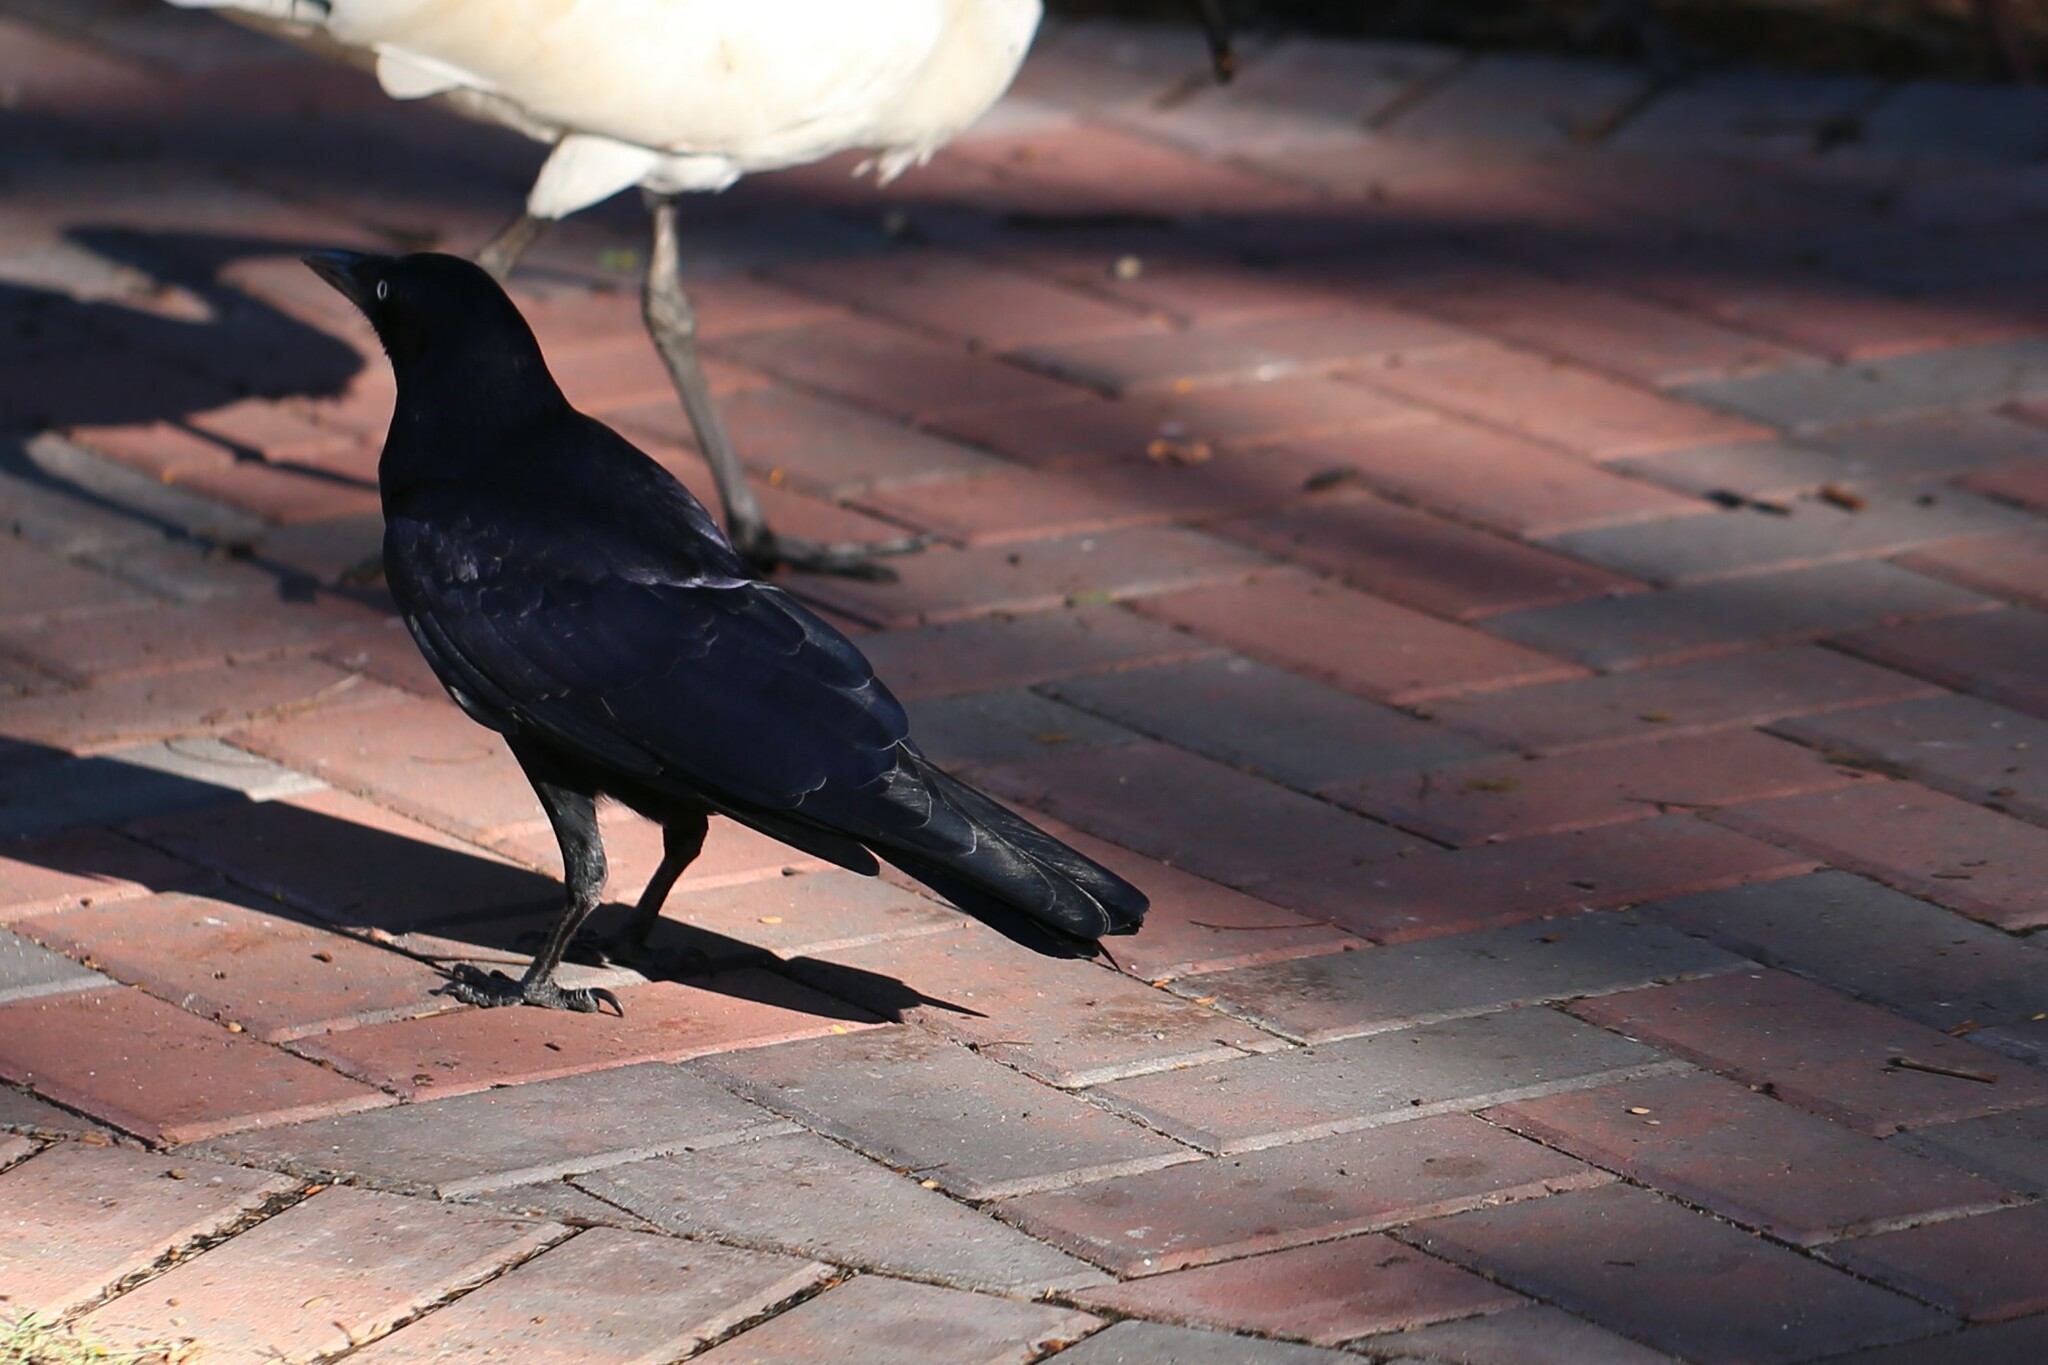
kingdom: Animalia
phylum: Chordata
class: Aves
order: Passeriformes
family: Corvidae
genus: Corvus
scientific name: Corvus orru
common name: Torresian crow
